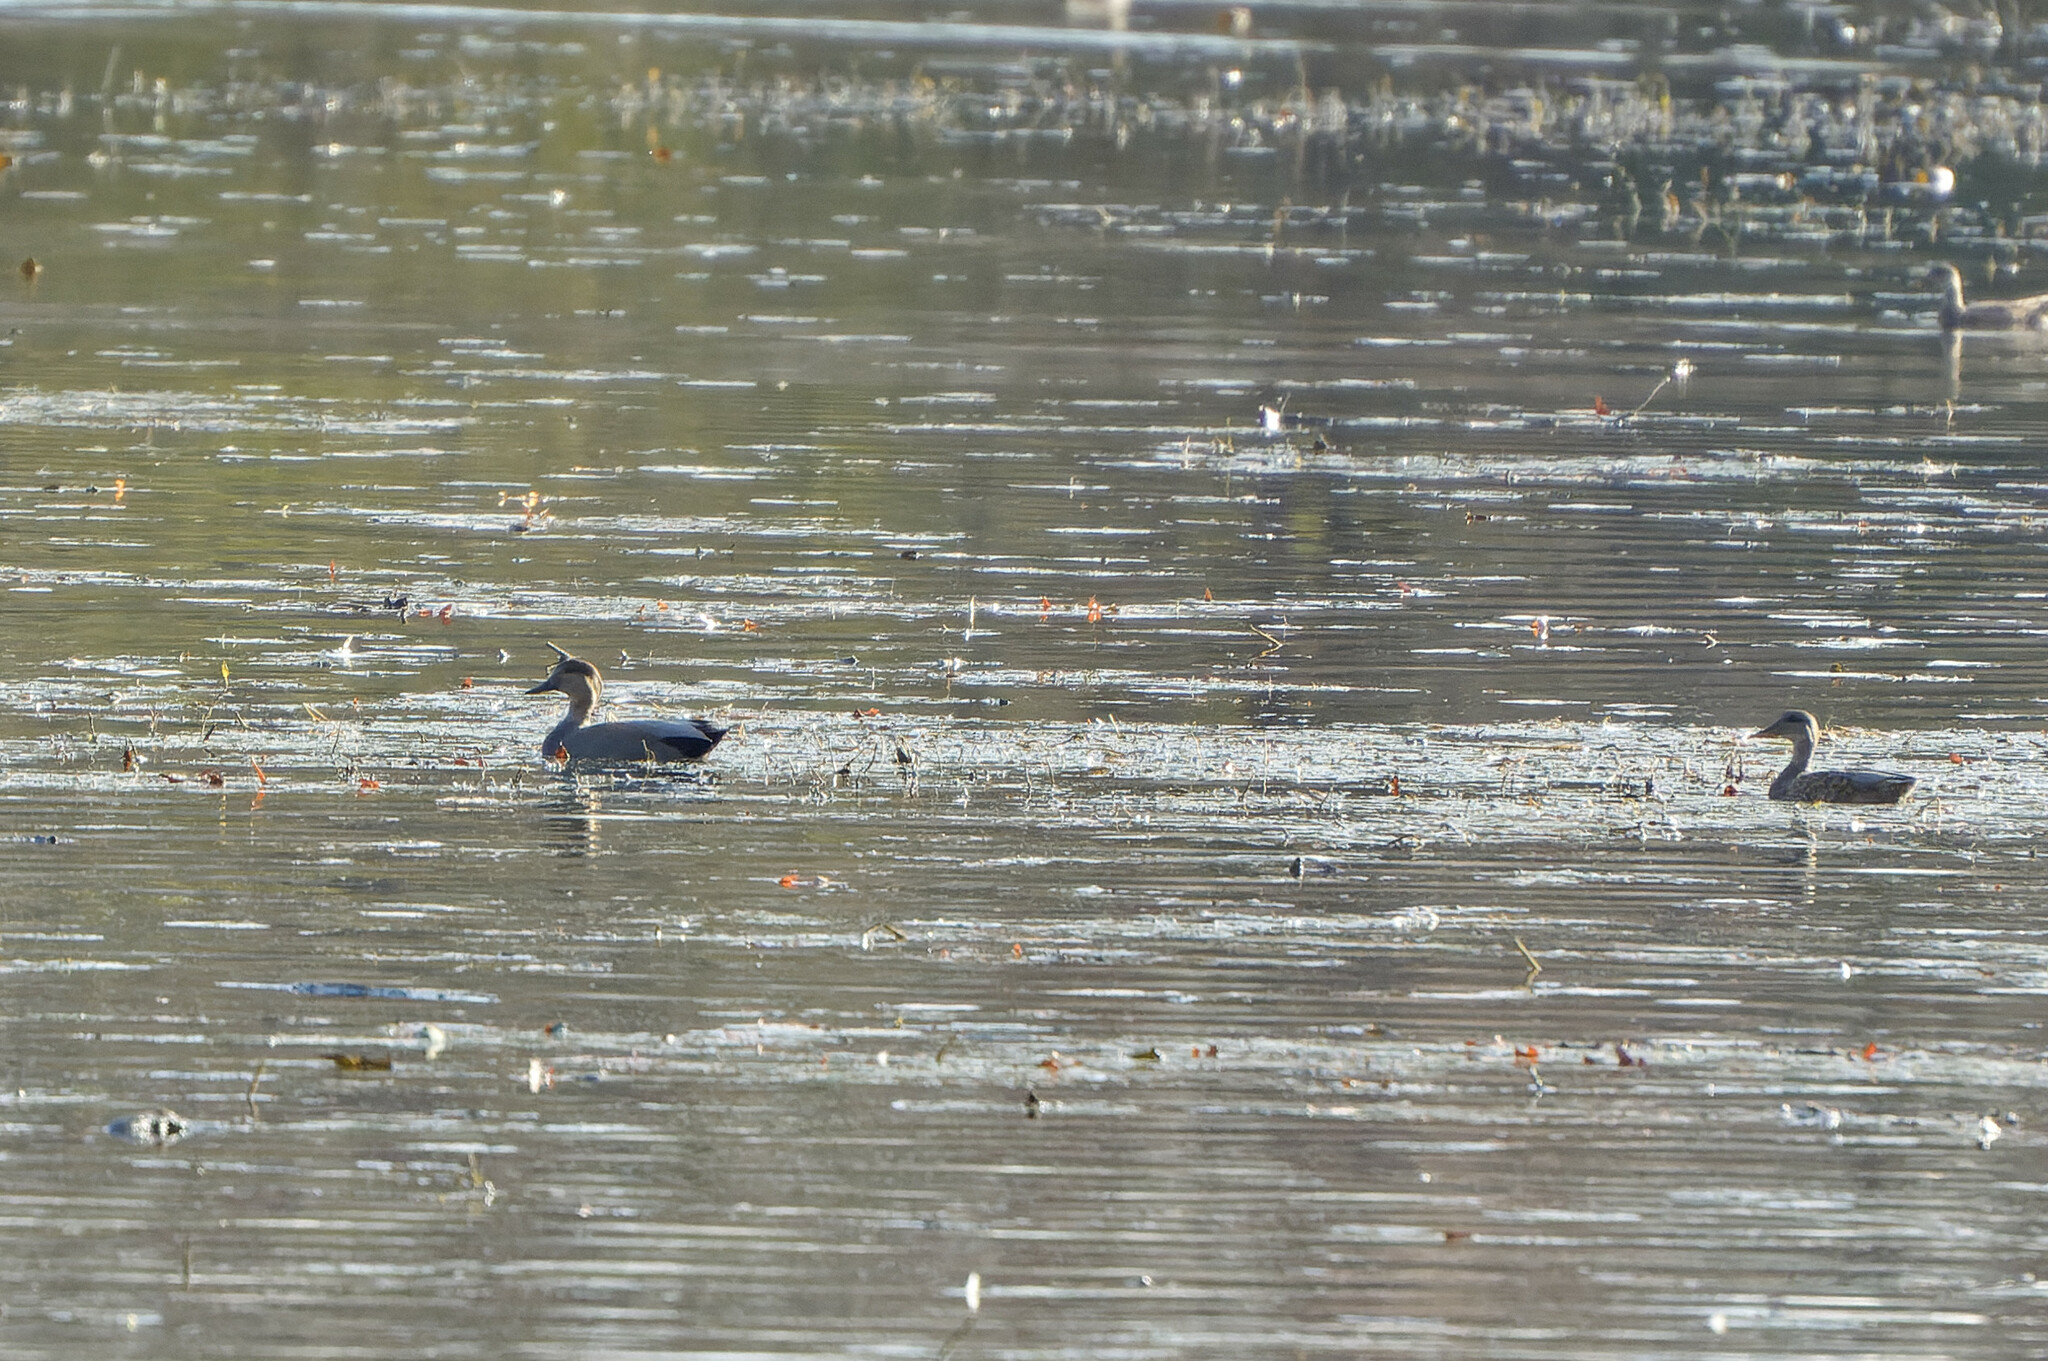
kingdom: Animalia
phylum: Chordata
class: Aves
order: Anseriformes
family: Anatidae
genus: Mareca
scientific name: Mareca strepera
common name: Gadwall
